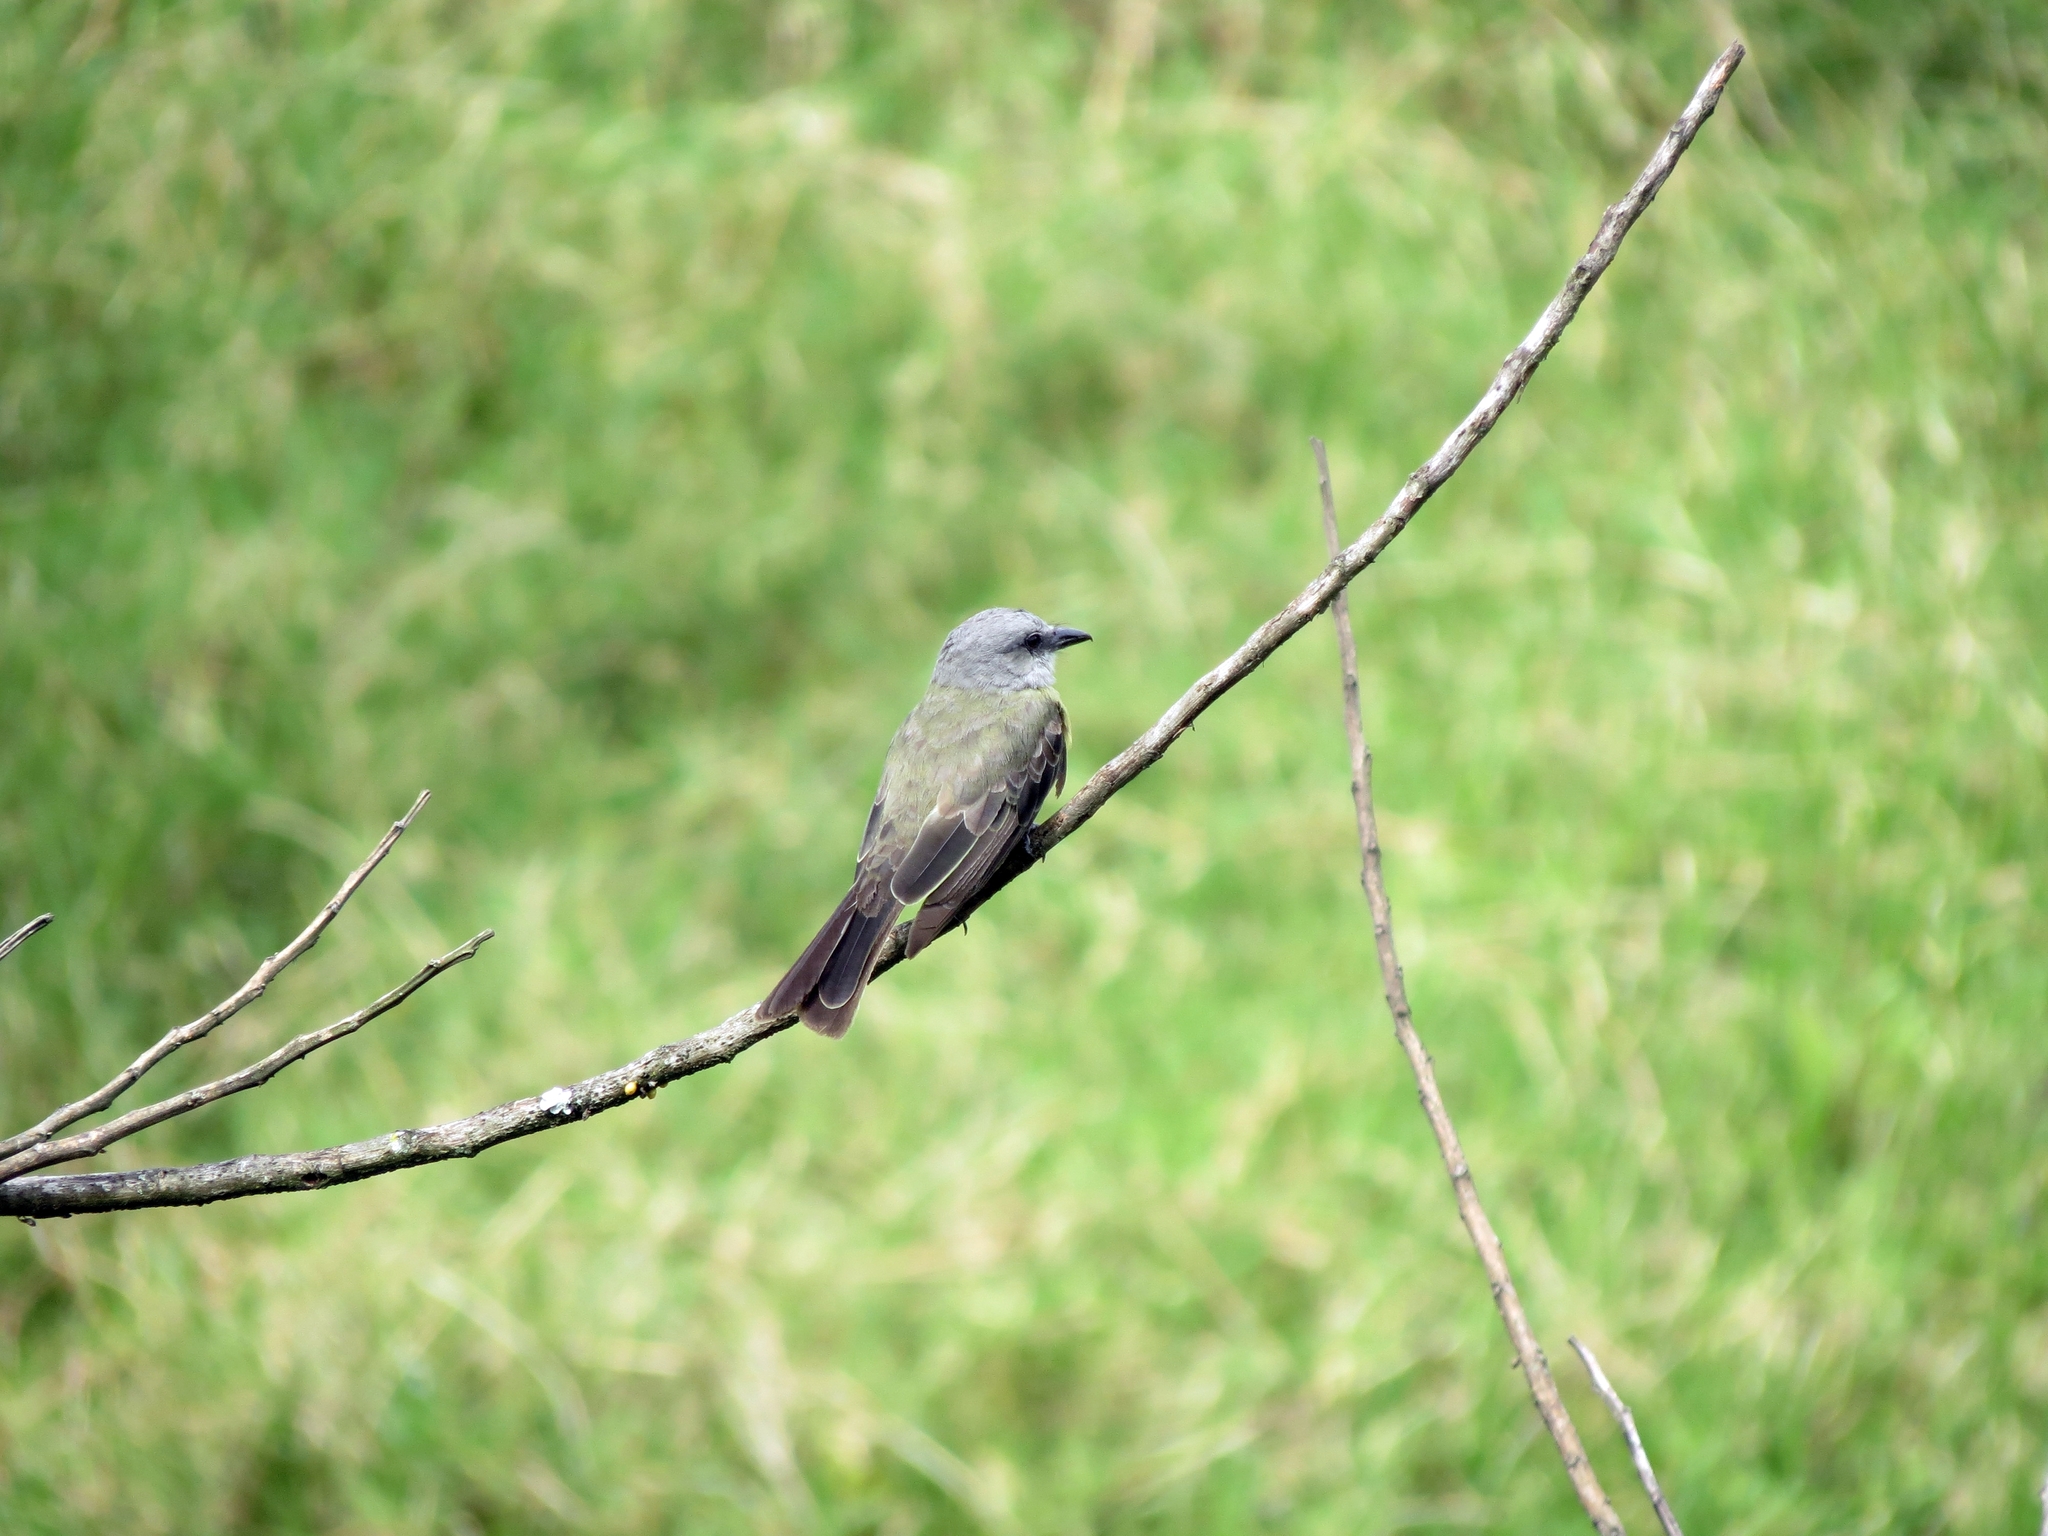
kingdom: Animalia
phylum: Chordata
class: Aves
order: Passeriformes
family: Tyrannidae
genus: Tyrannus
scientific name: Tyrannus melancholicus
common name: Tropical kingbird
